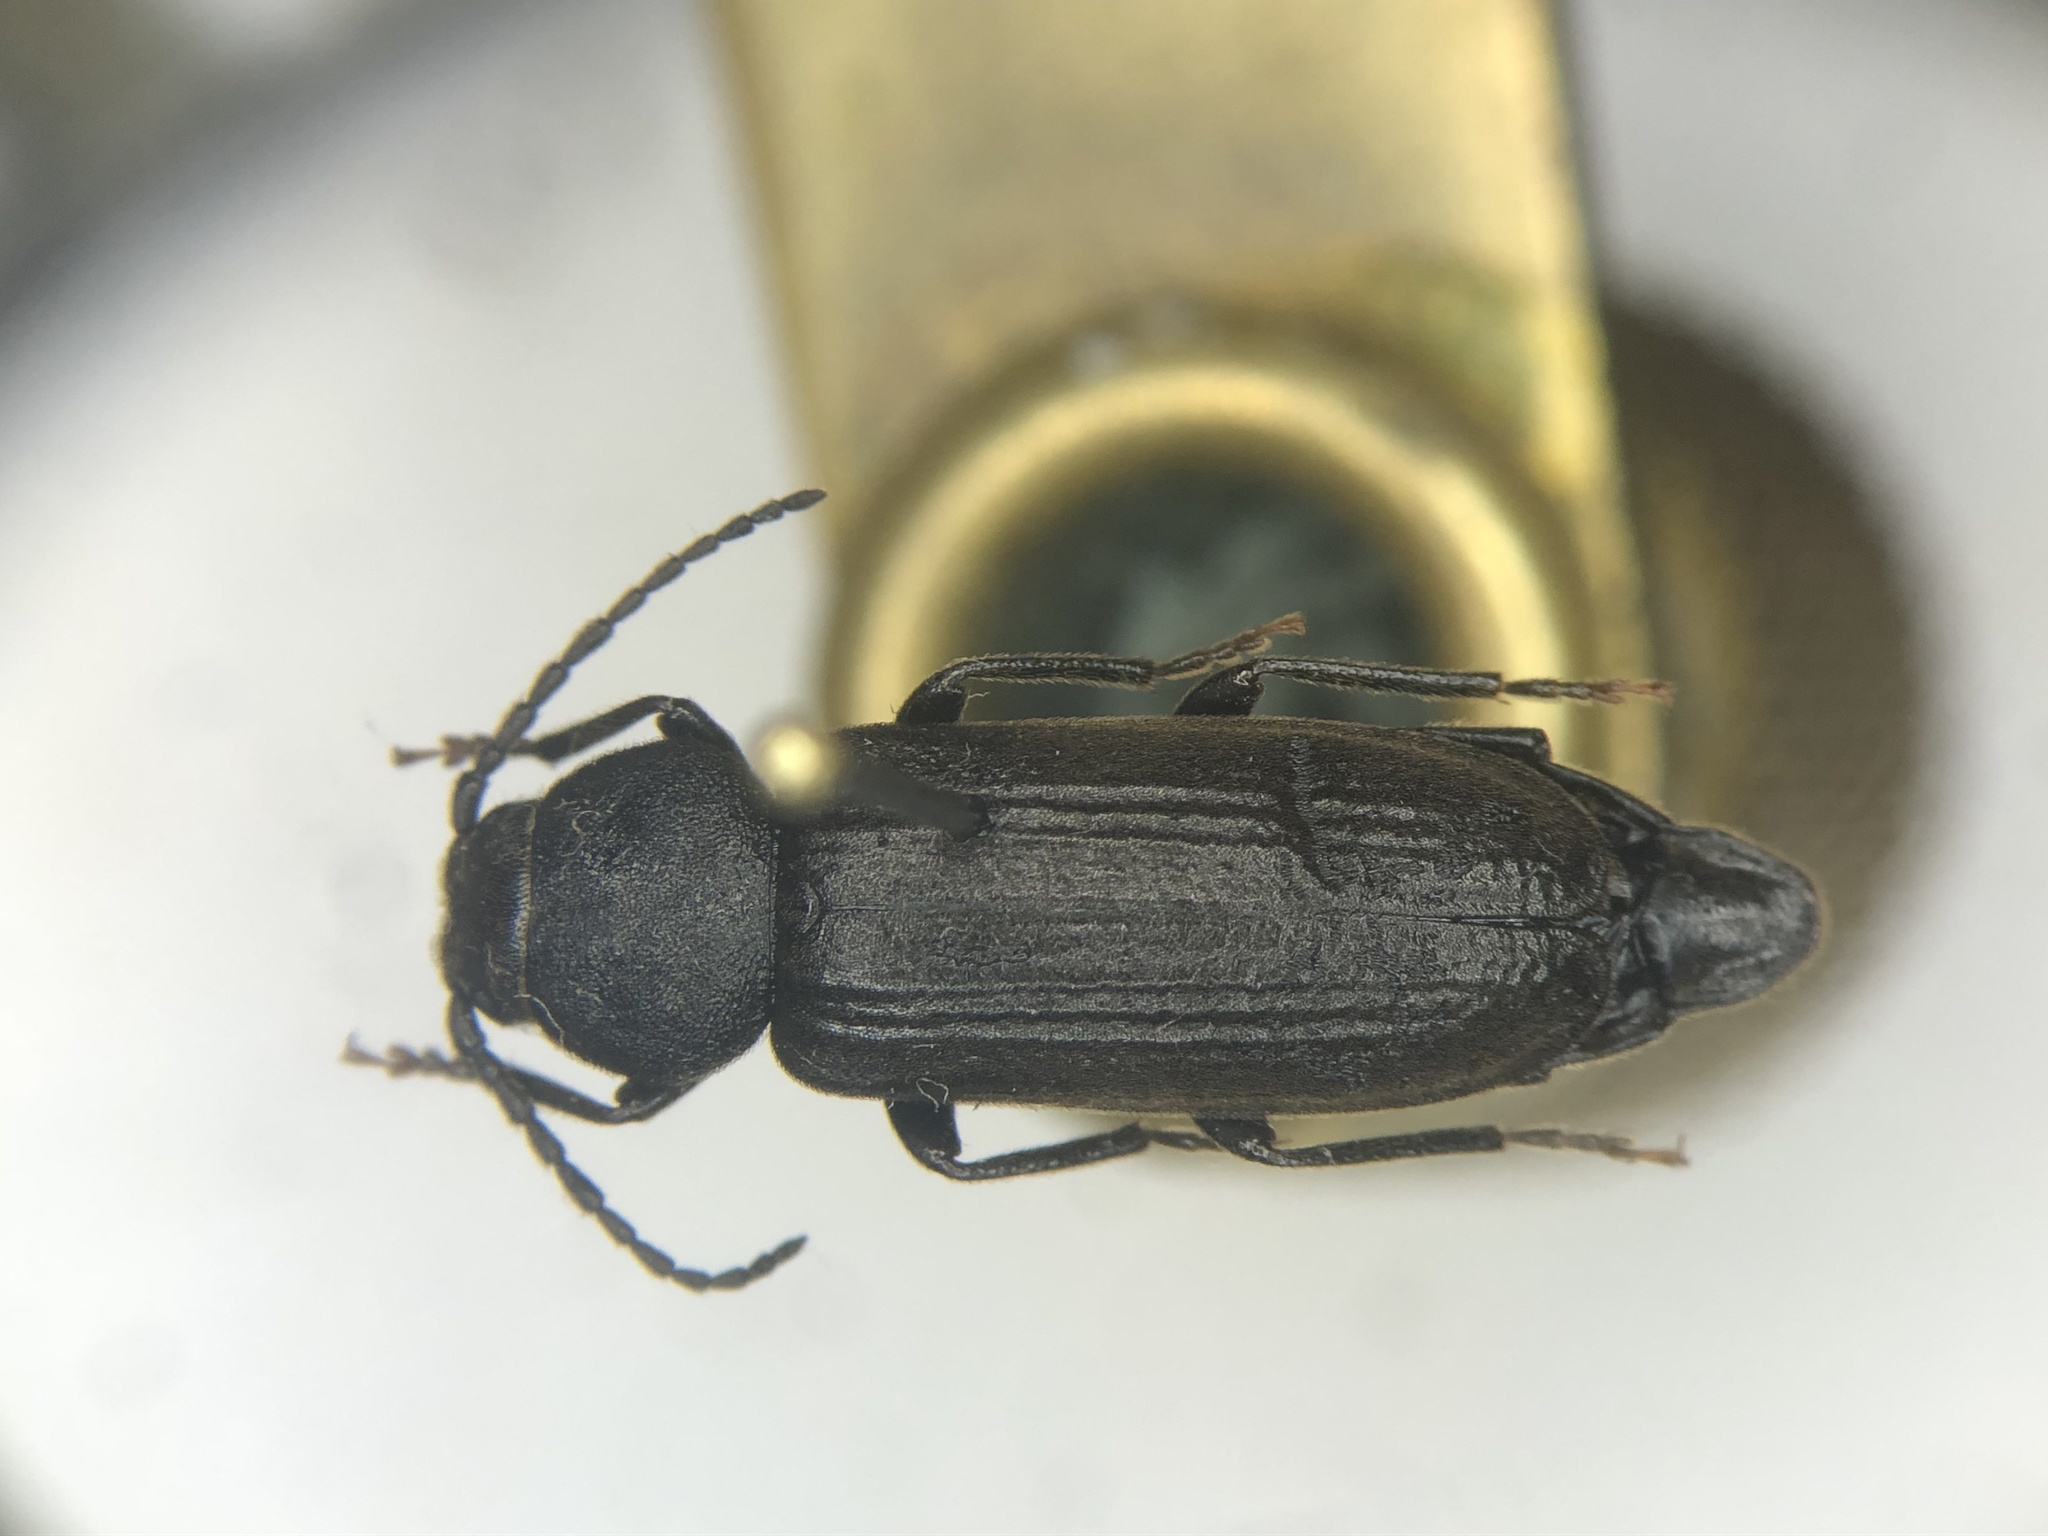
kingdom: Animalia
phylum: Arthropoda
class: Insecta
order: Coleoptera
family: Cerambycidae
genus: Asemum
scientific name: Asemum striatum
